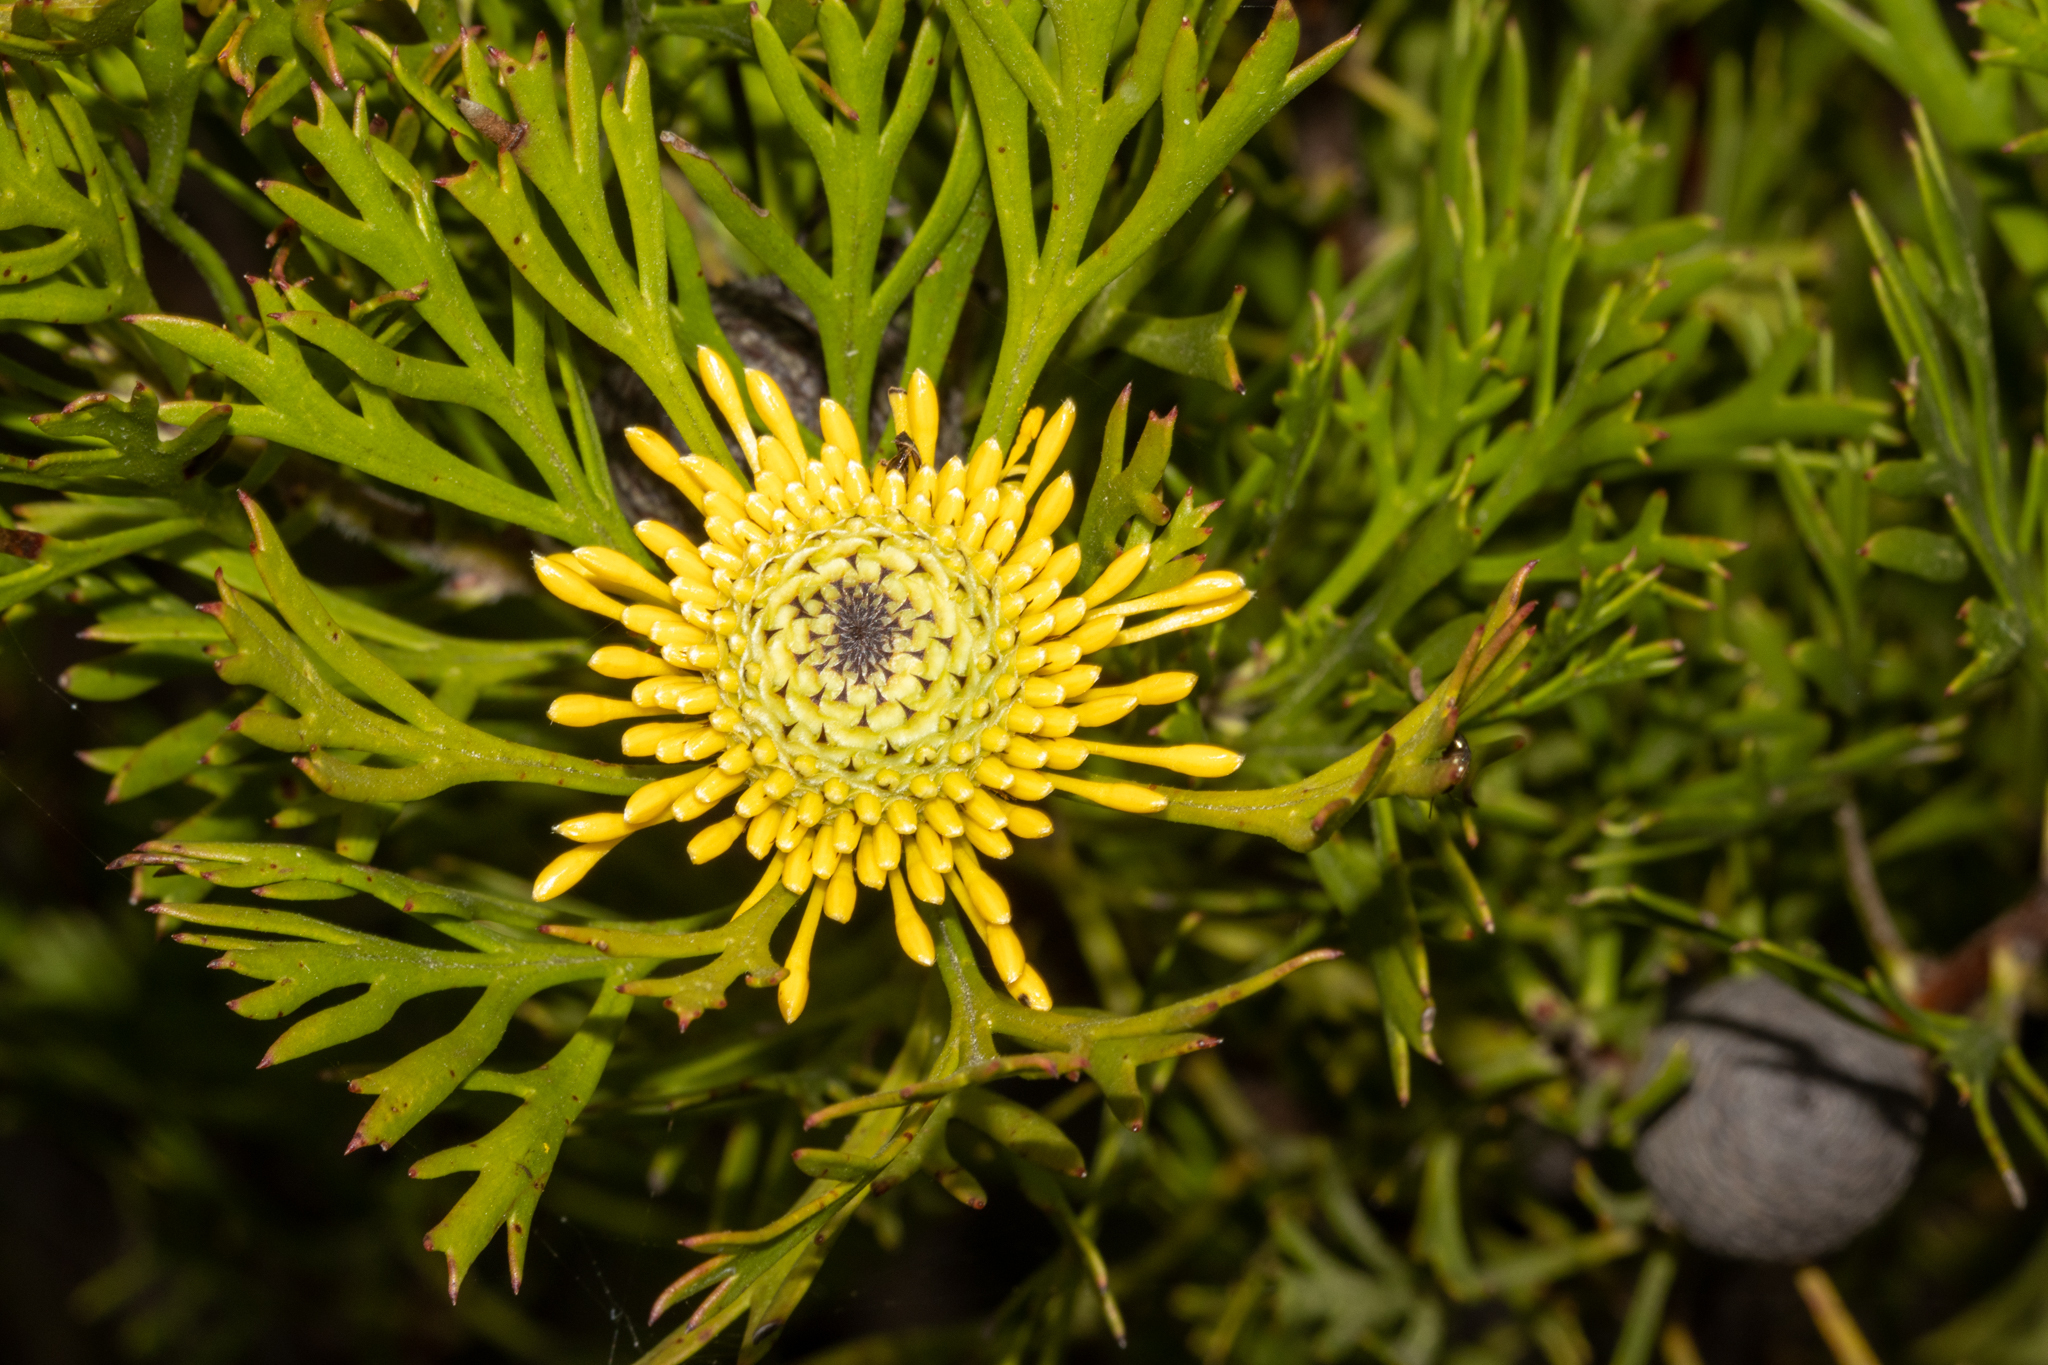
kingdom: Plantae
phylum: Tracheophyta
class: Magnoliopsida
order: Proteales
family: Proteaceae
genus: Isopogon
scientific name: Isopogon anemonifolius
